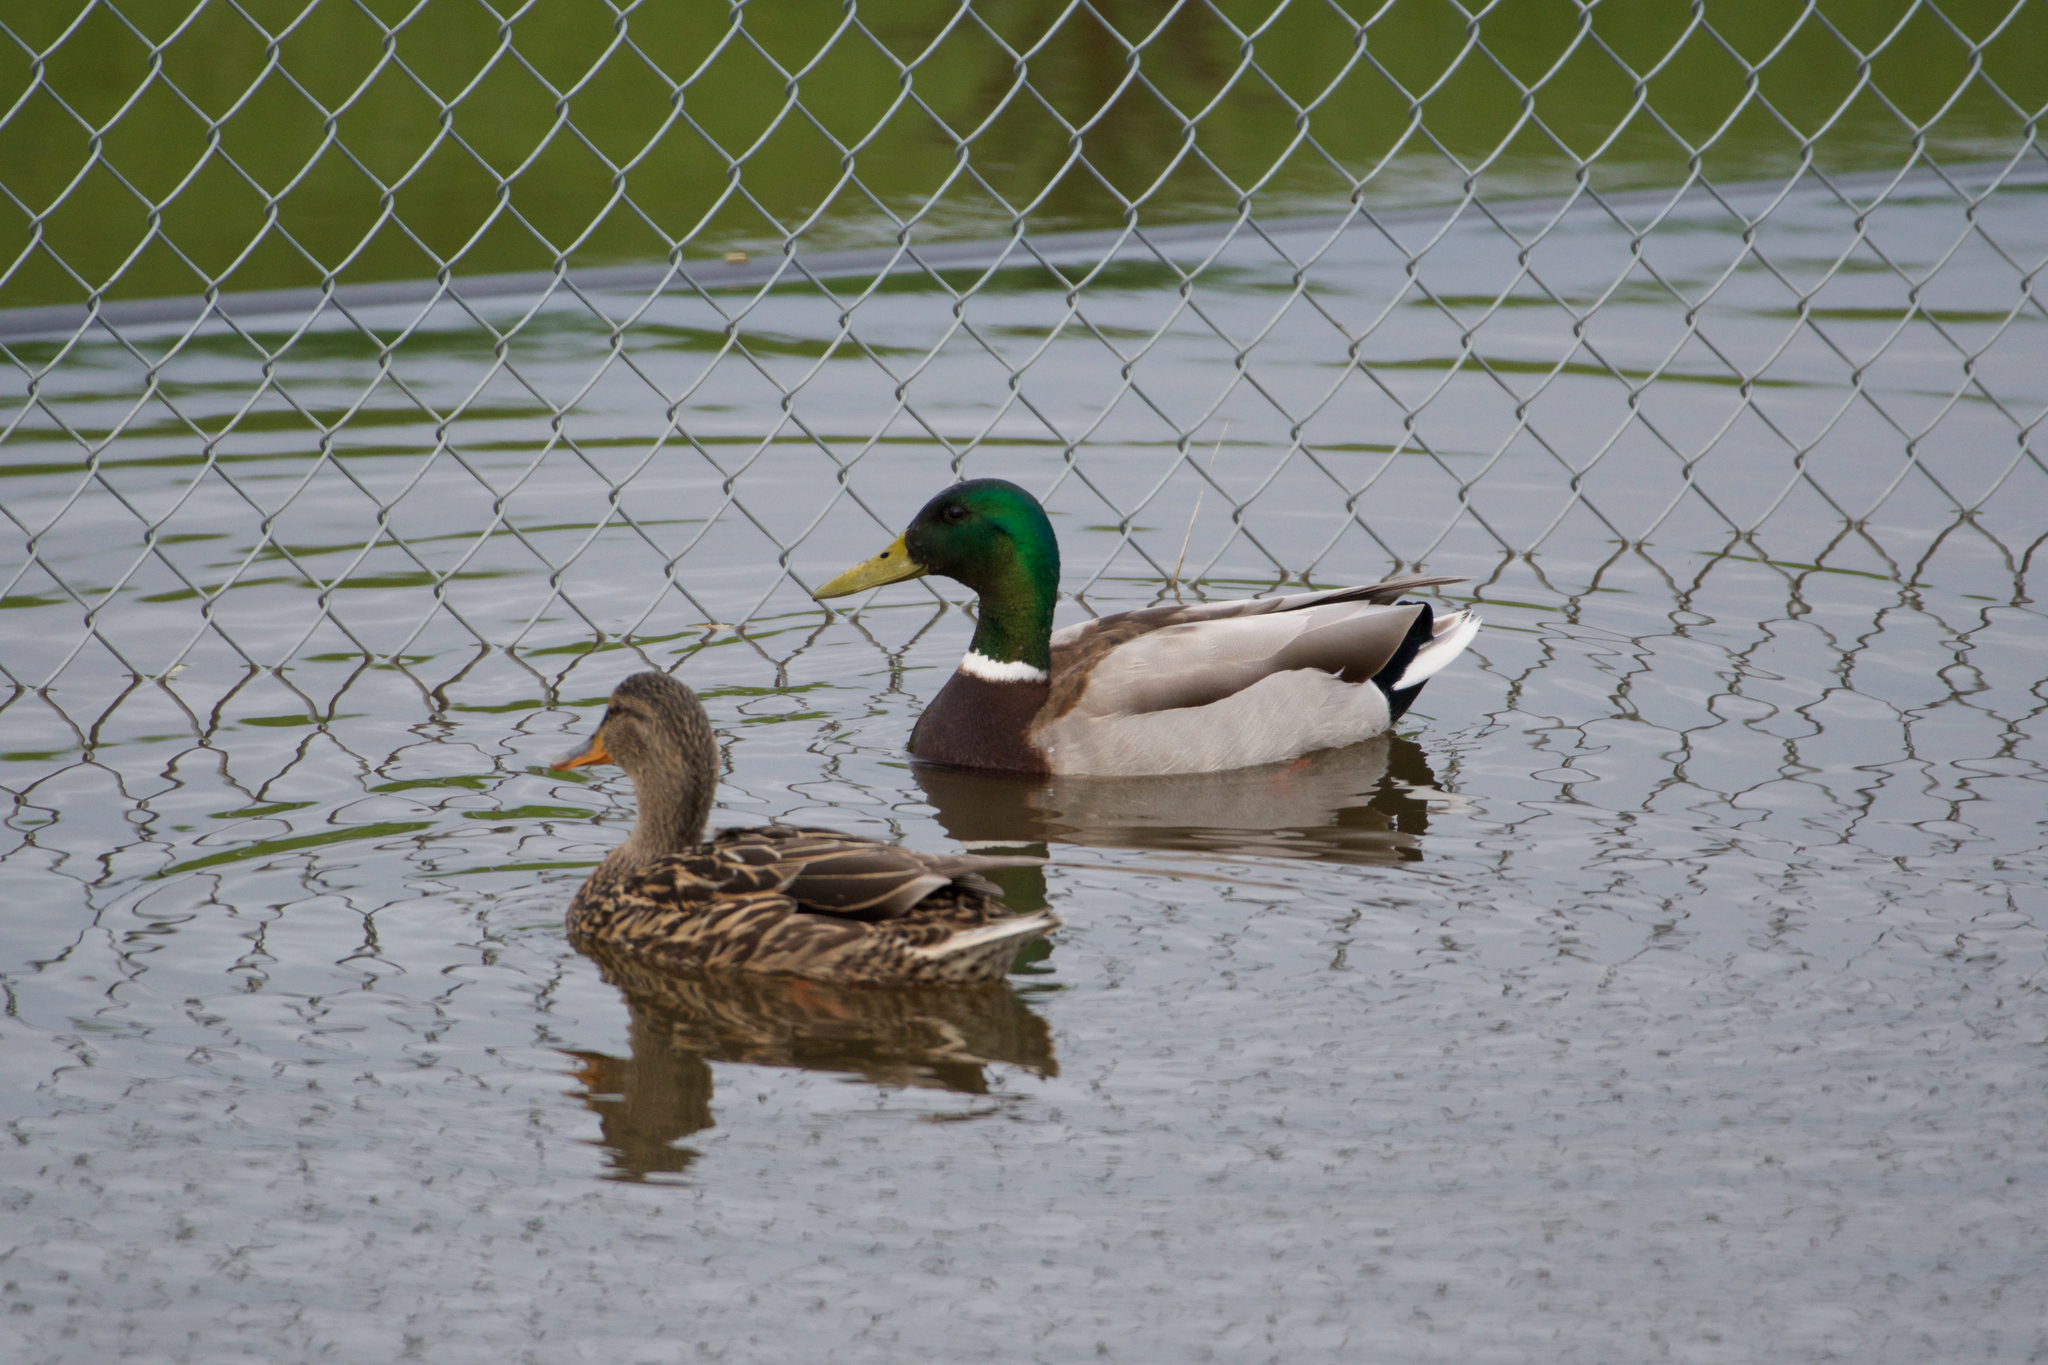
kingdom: Animalia
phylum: Chordata
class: Aves
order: Anseriformes
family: Anatidae
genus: Anas
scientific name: Anas platyrhynchos
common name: Mallard
